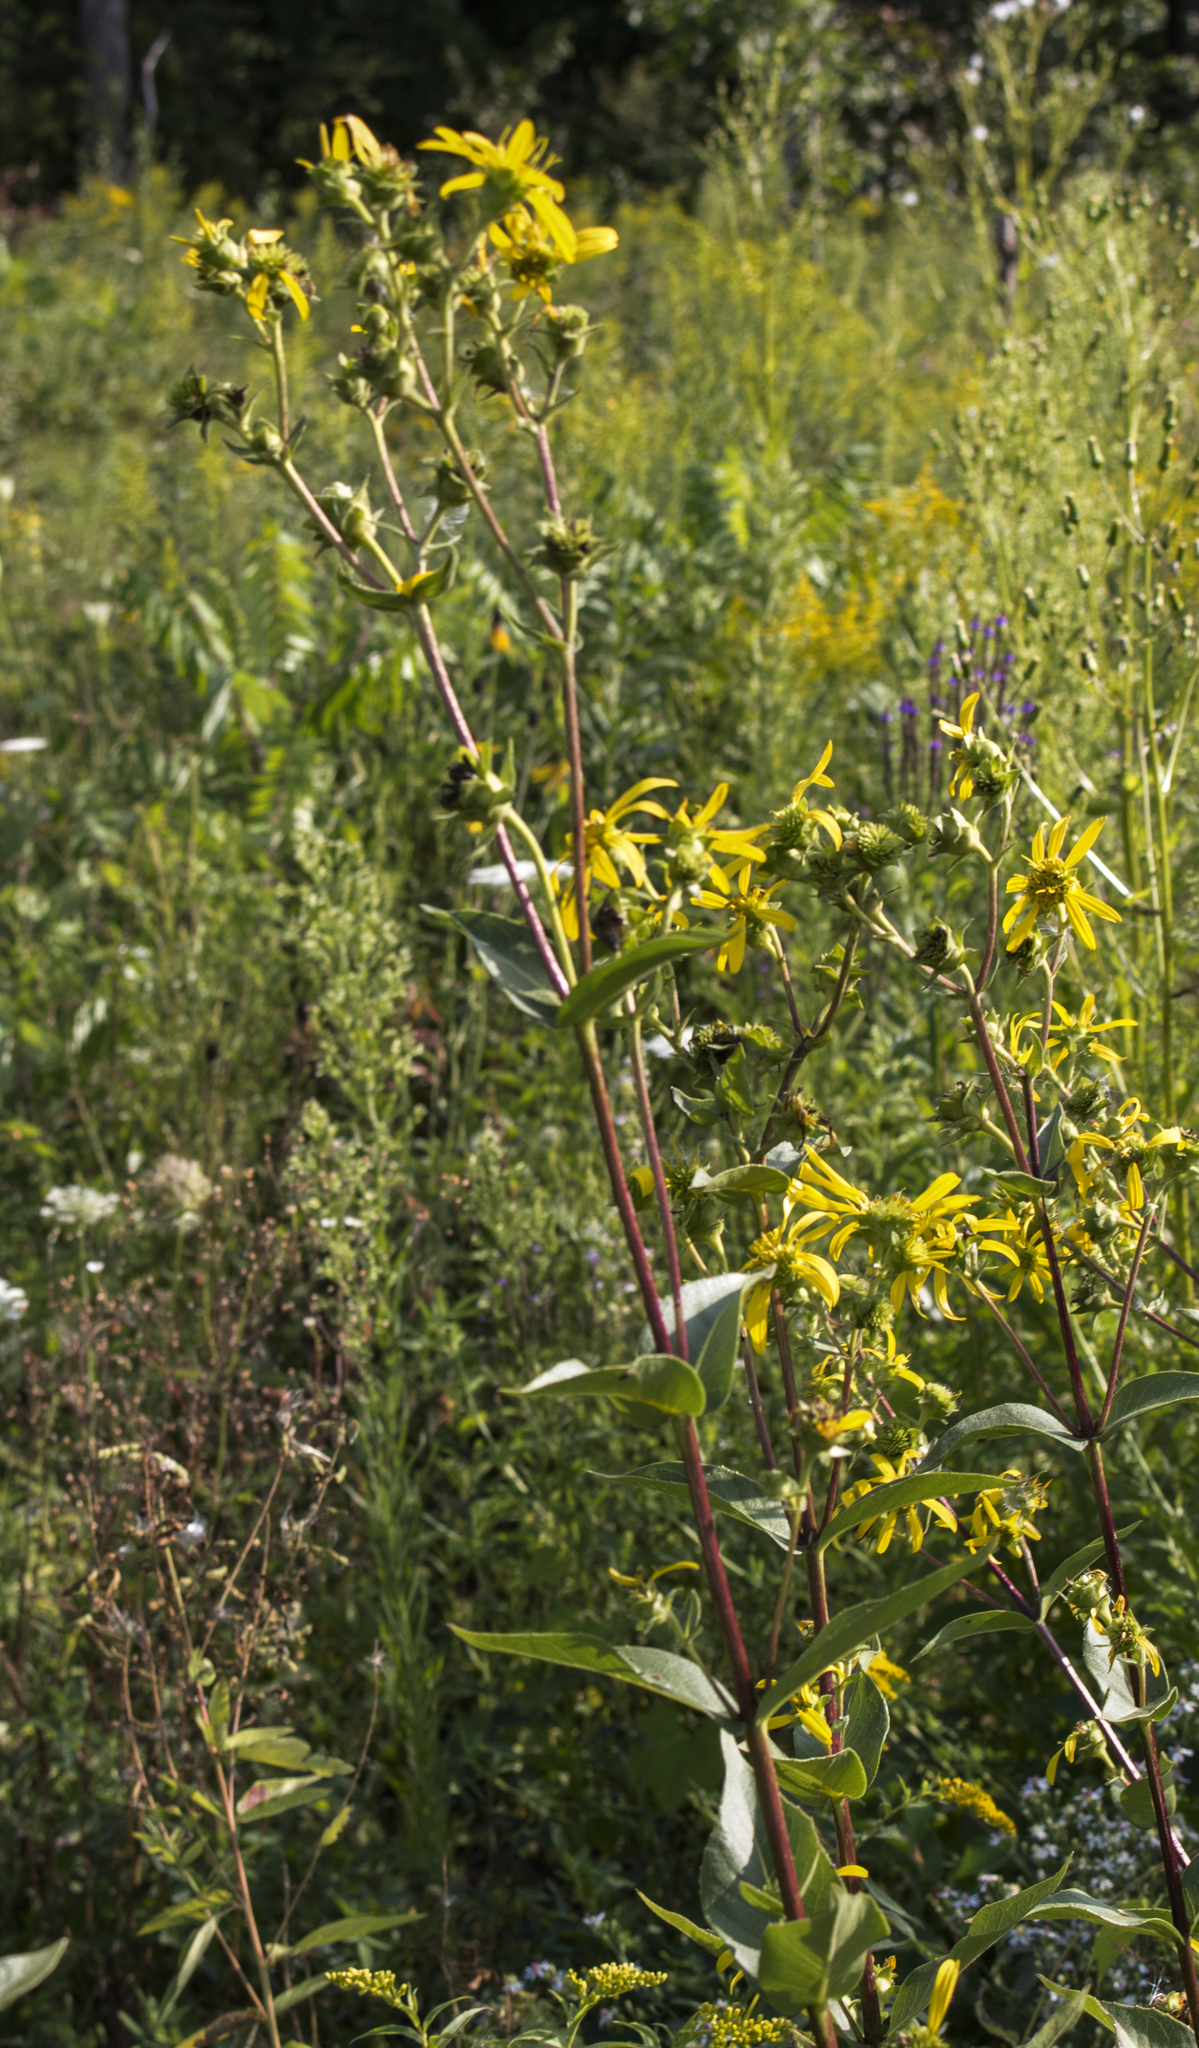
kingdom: Plantae
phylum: Tracheophyta
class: Magnoliopsida
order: Asterales
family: Asteraceae
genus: Silphium
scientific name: Silphium integrifolium
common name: Whole-leaf rosinweed
